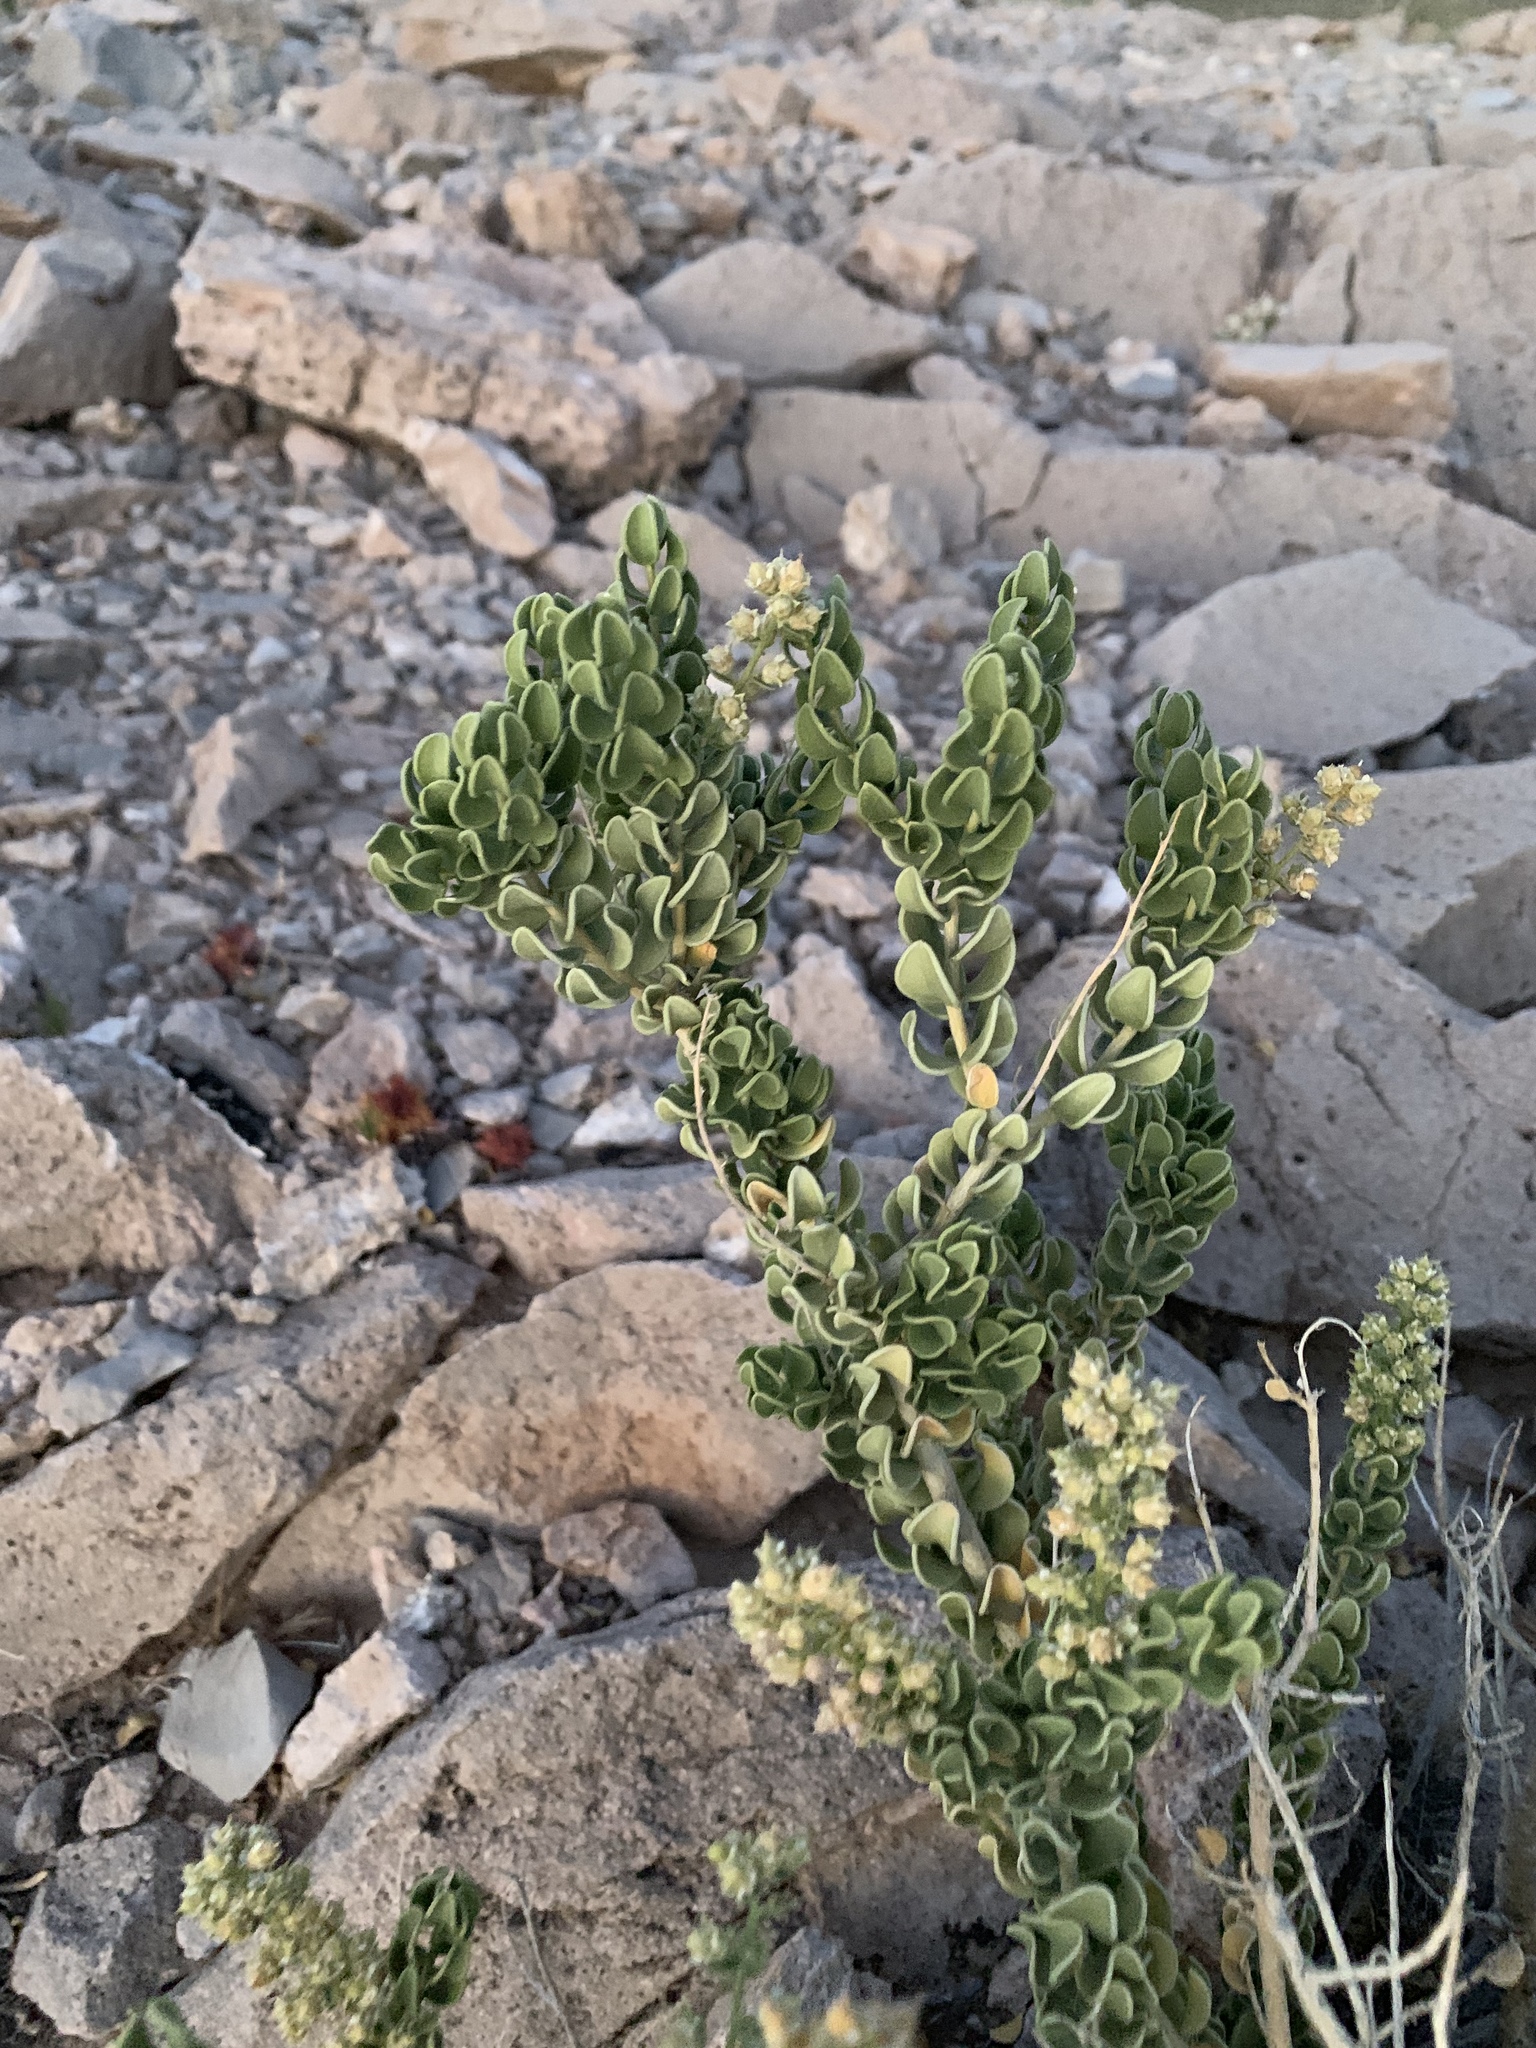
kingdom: Plantae
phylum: Tracheophyta
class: Magnoliopsida
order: Celastrales
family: Celastraceae
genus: Mortonia
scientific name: Mortonia utahensis
